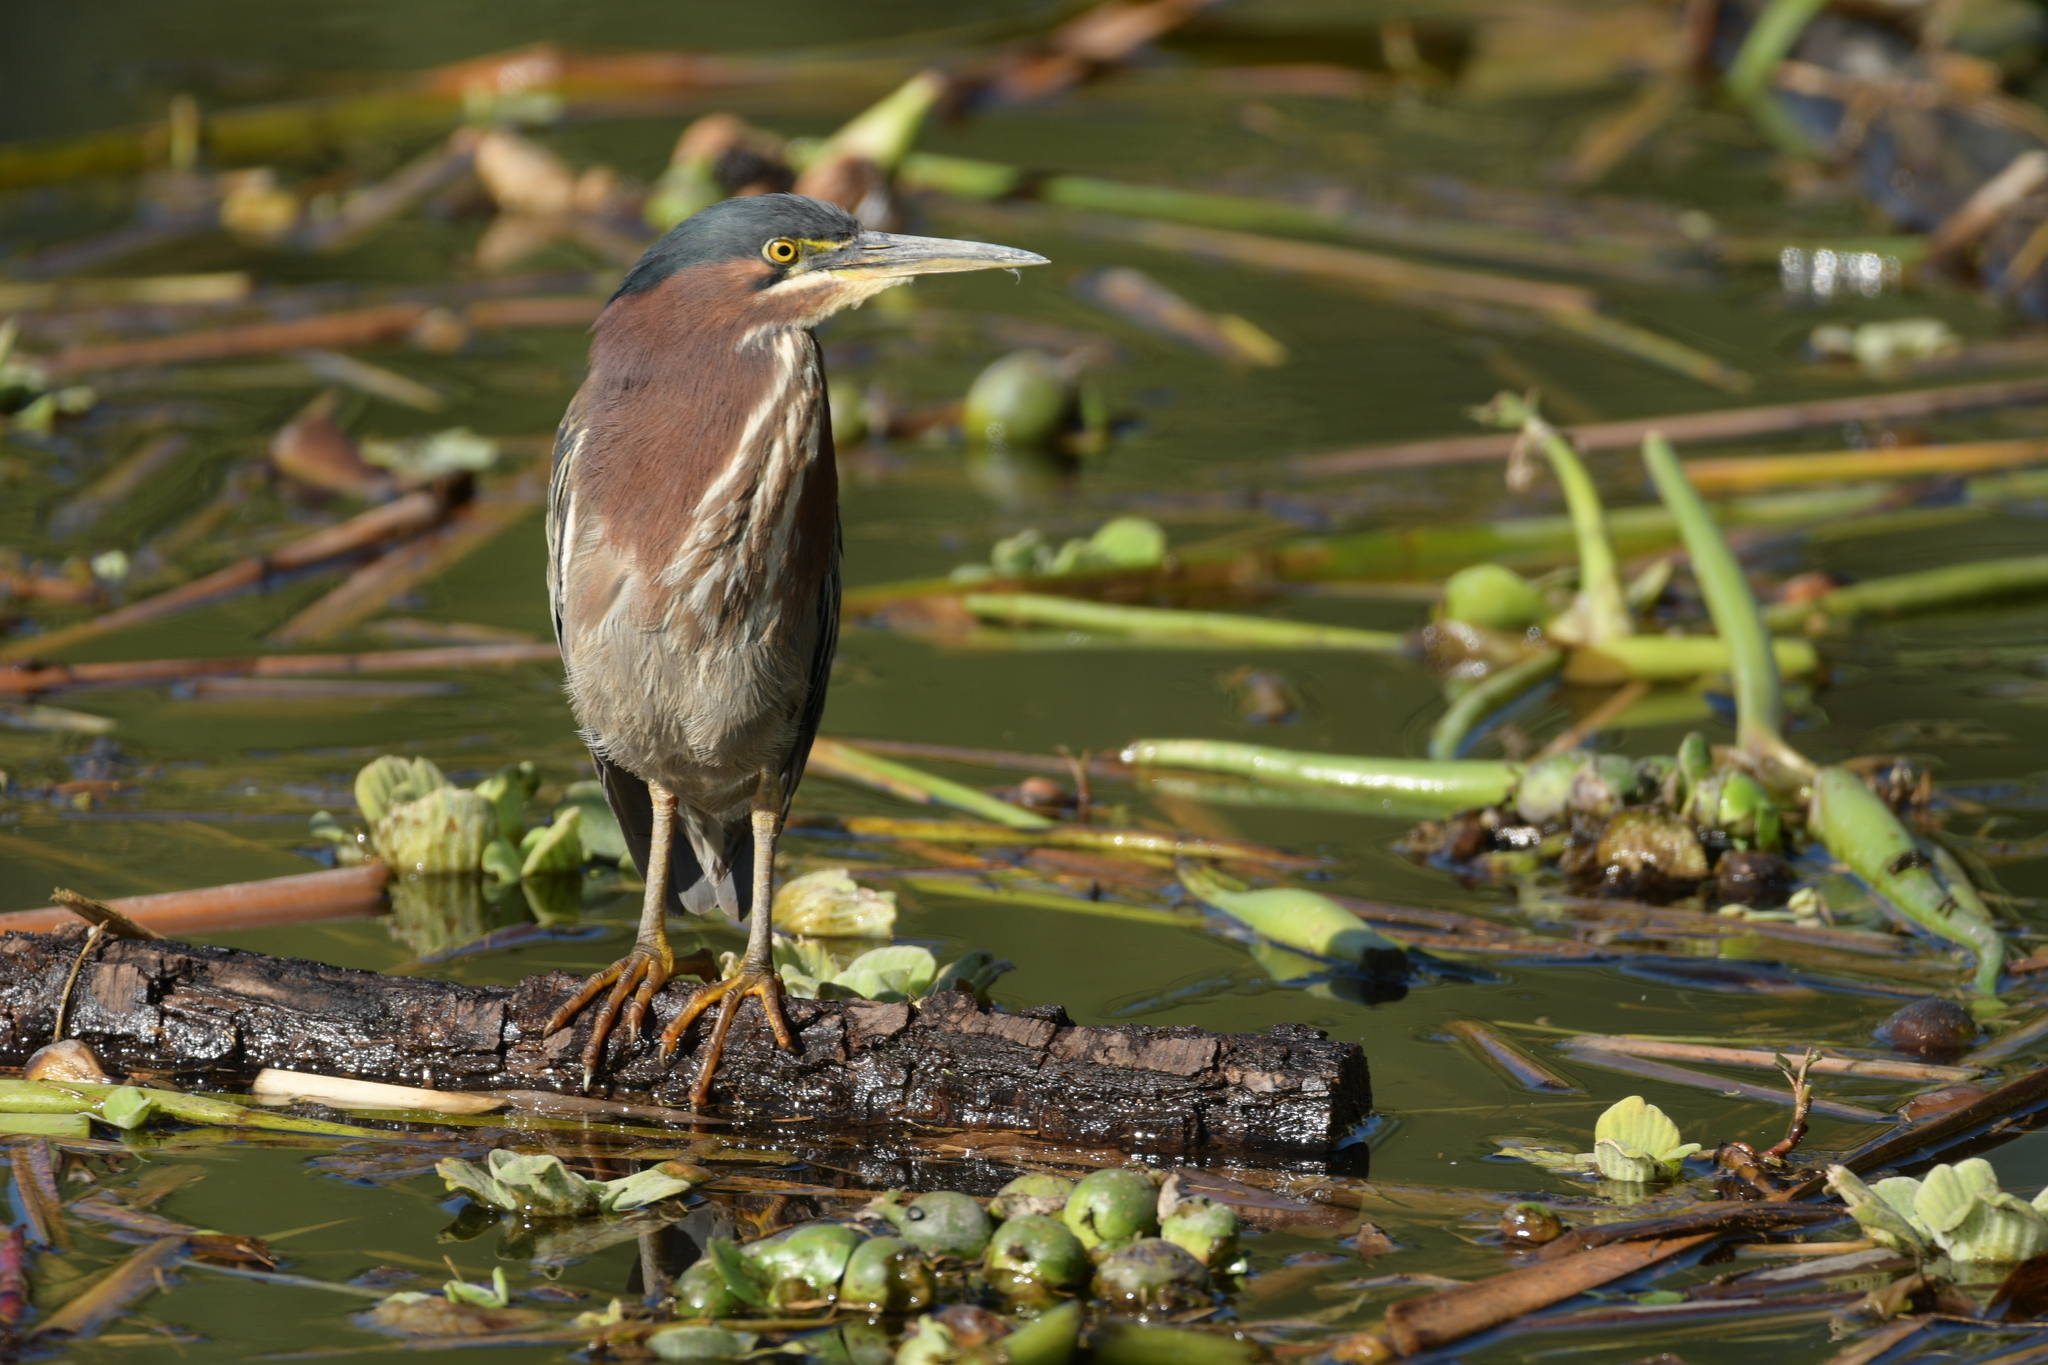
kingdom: Animalia
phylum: Chordata
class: Aves
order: Pelecaniformes
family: Ardeidae
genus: Butorides
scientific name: Butorides virescens
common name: Green heron
